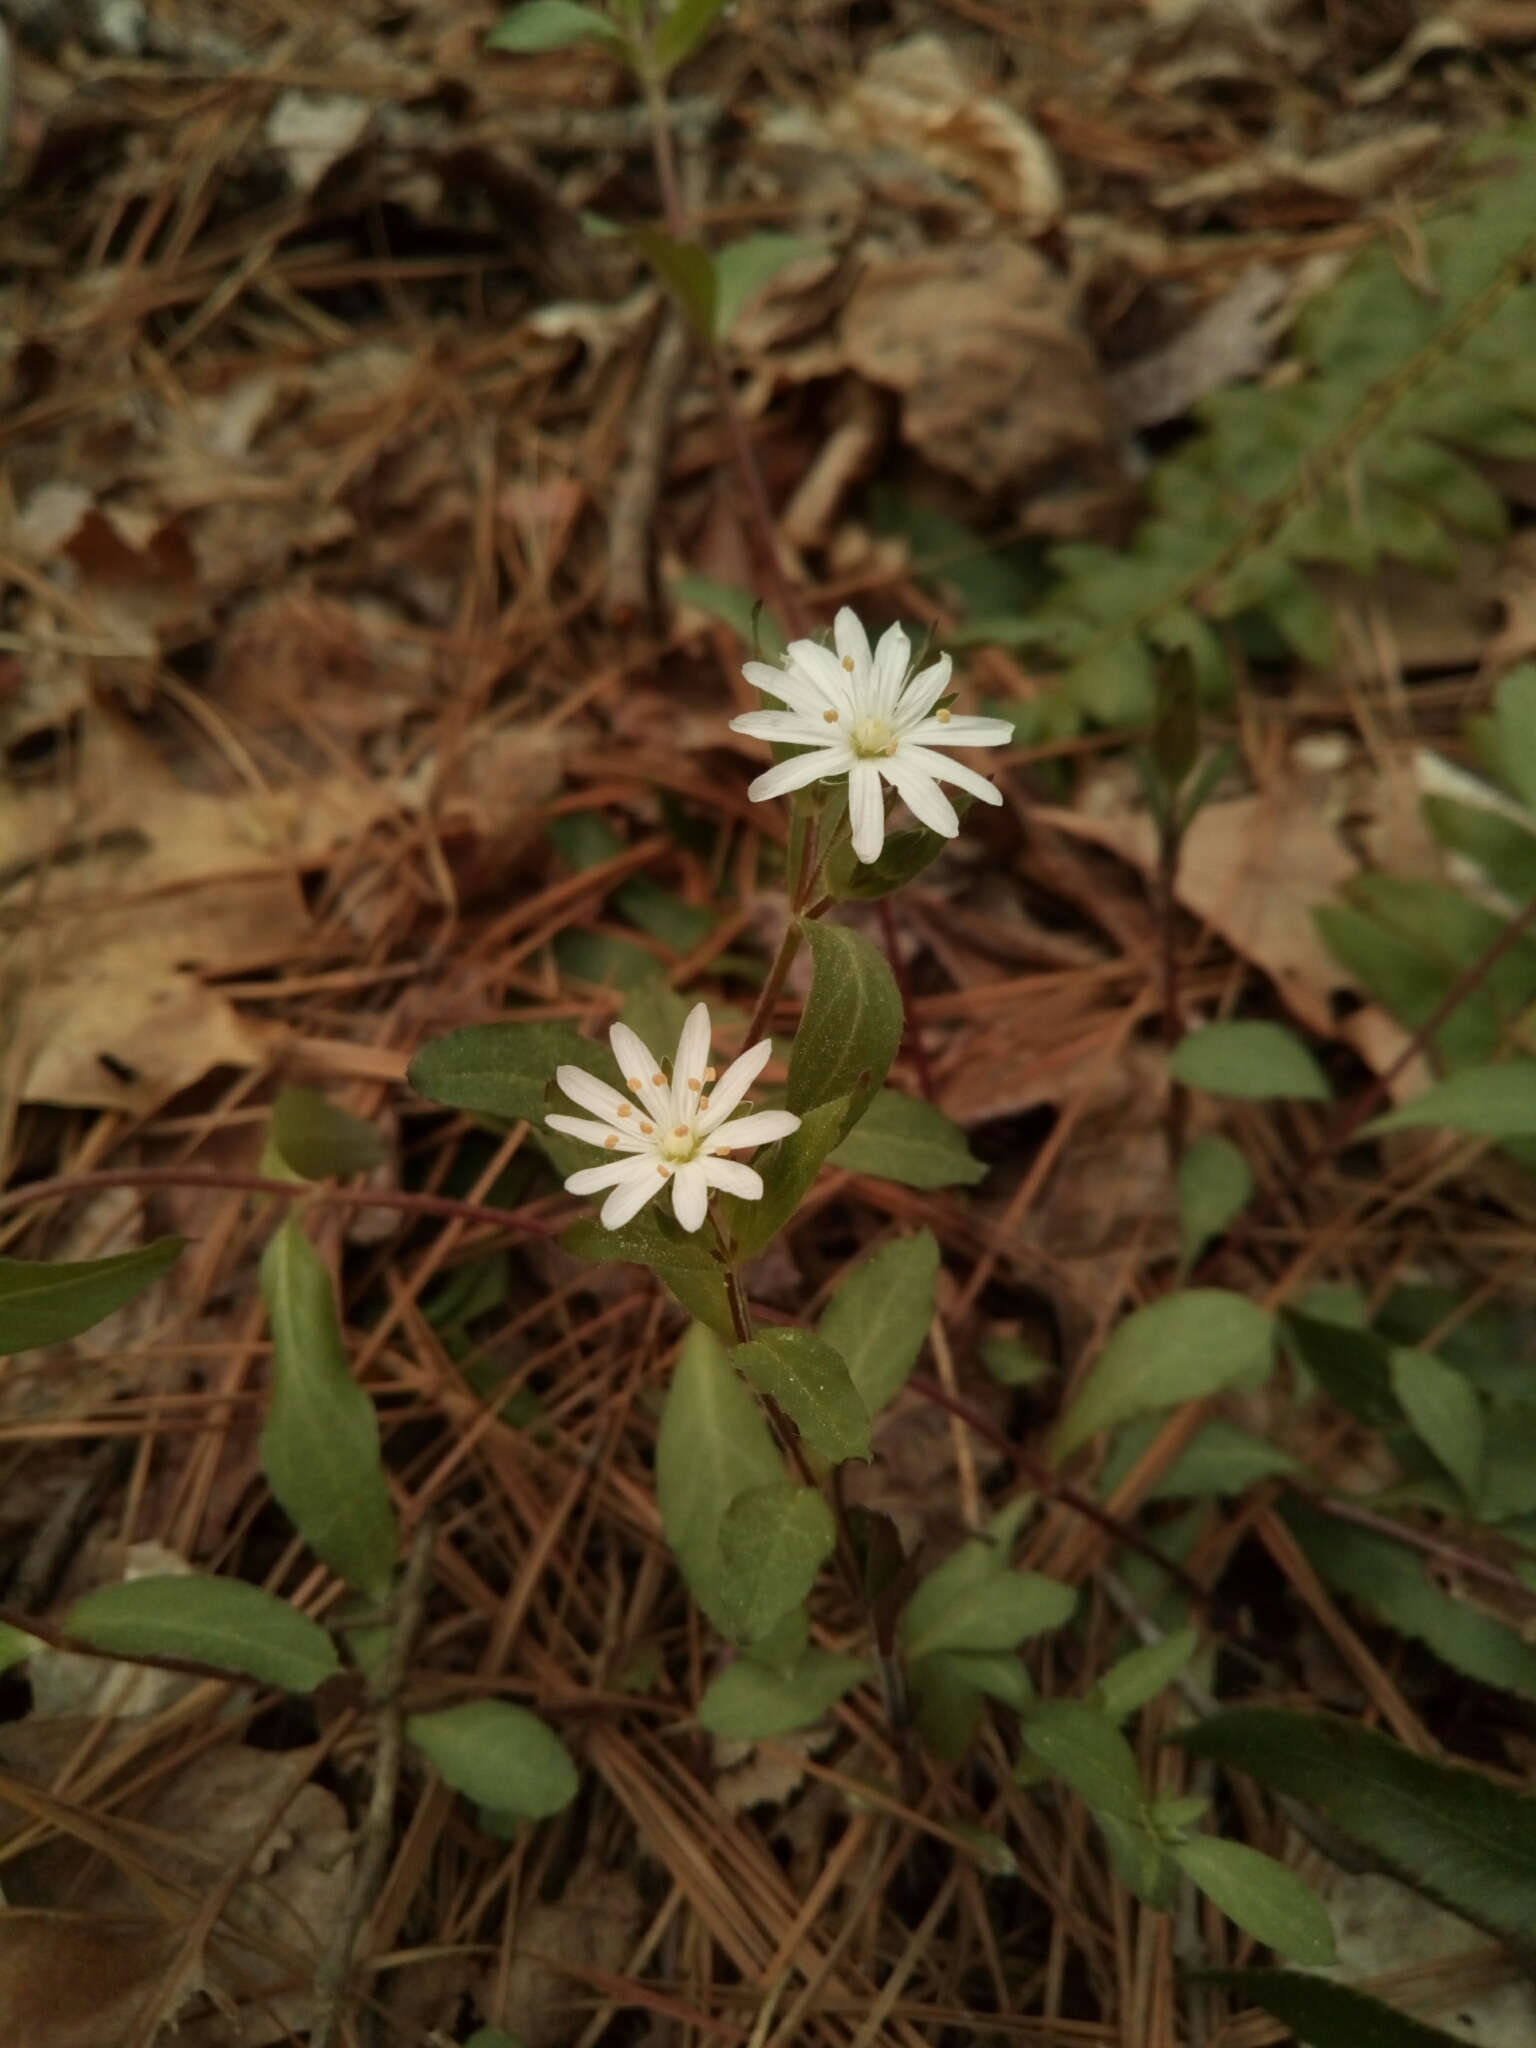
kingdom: Plantae
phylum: Tracheophyta
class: Magnoliopsida
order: Caryophyllales
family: Caryophyllaceae
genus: Stellaria
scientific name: Stellaria pubera
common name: Star chickweed
